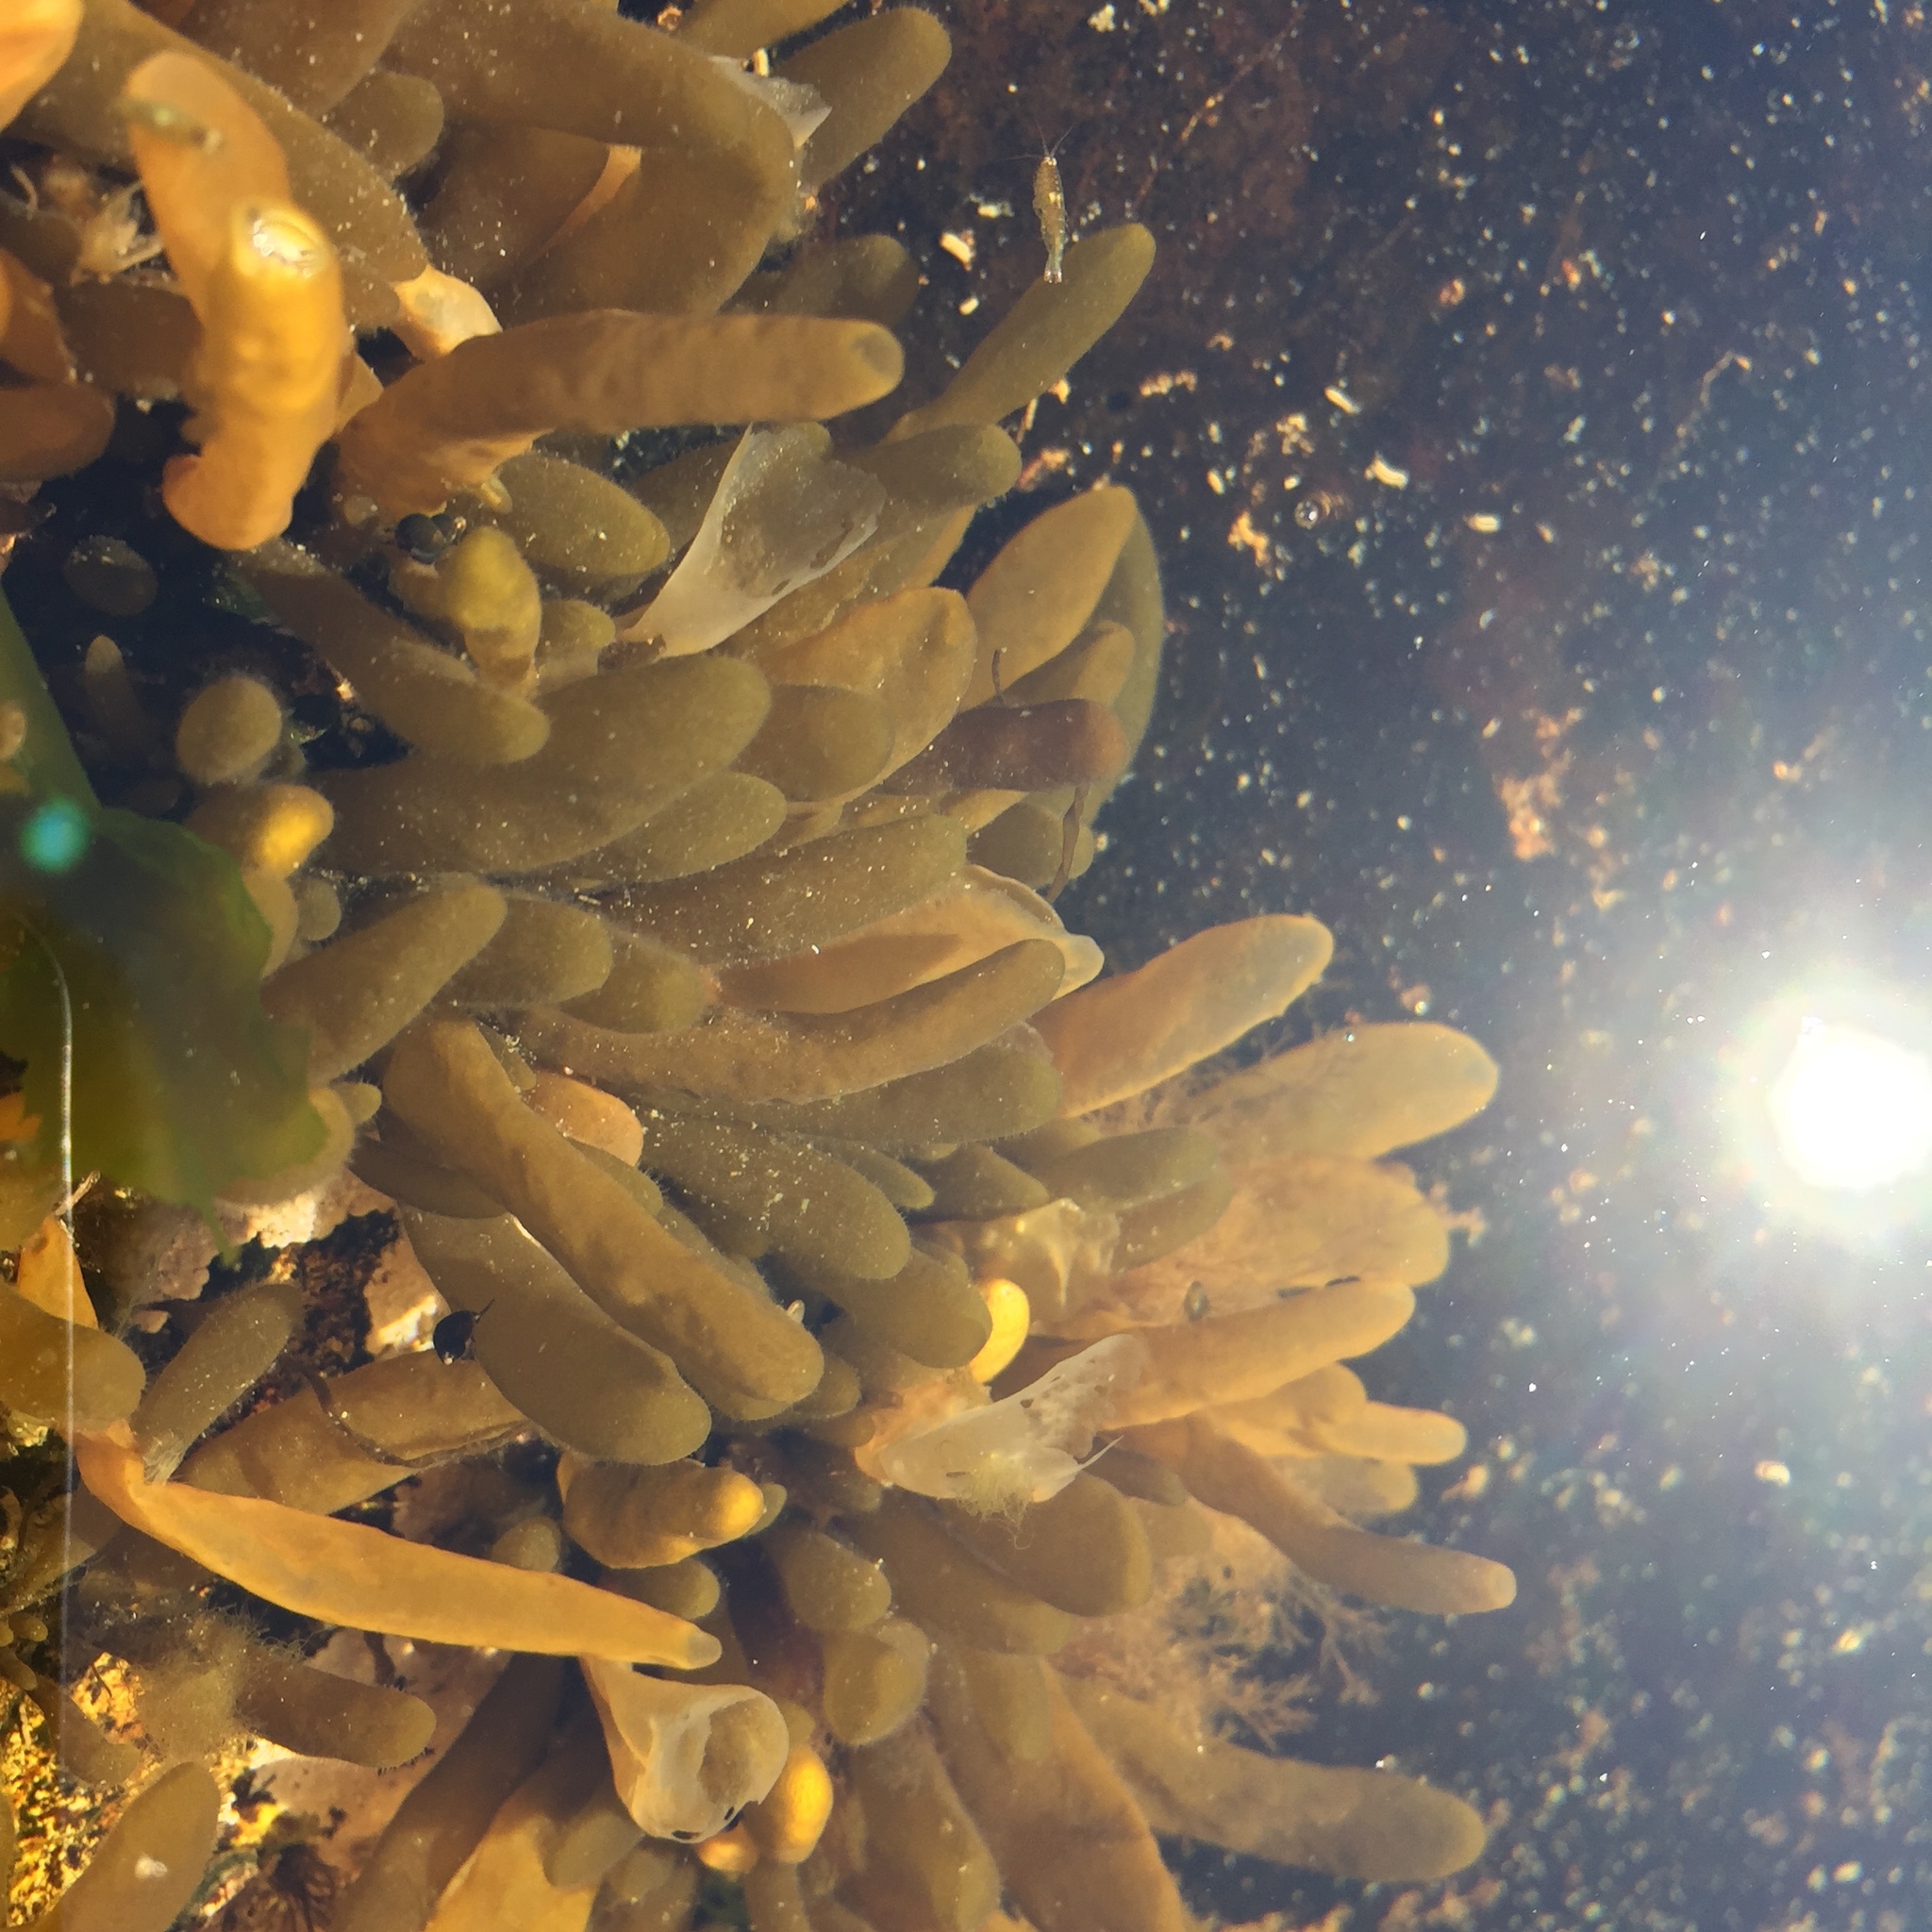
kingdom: Chromista
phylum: Ochrophyta
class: Phaeophyceae
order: Ectocarpales
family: Adenocystaceae
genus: Adenocystis
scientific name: Adenocystis utricularis
